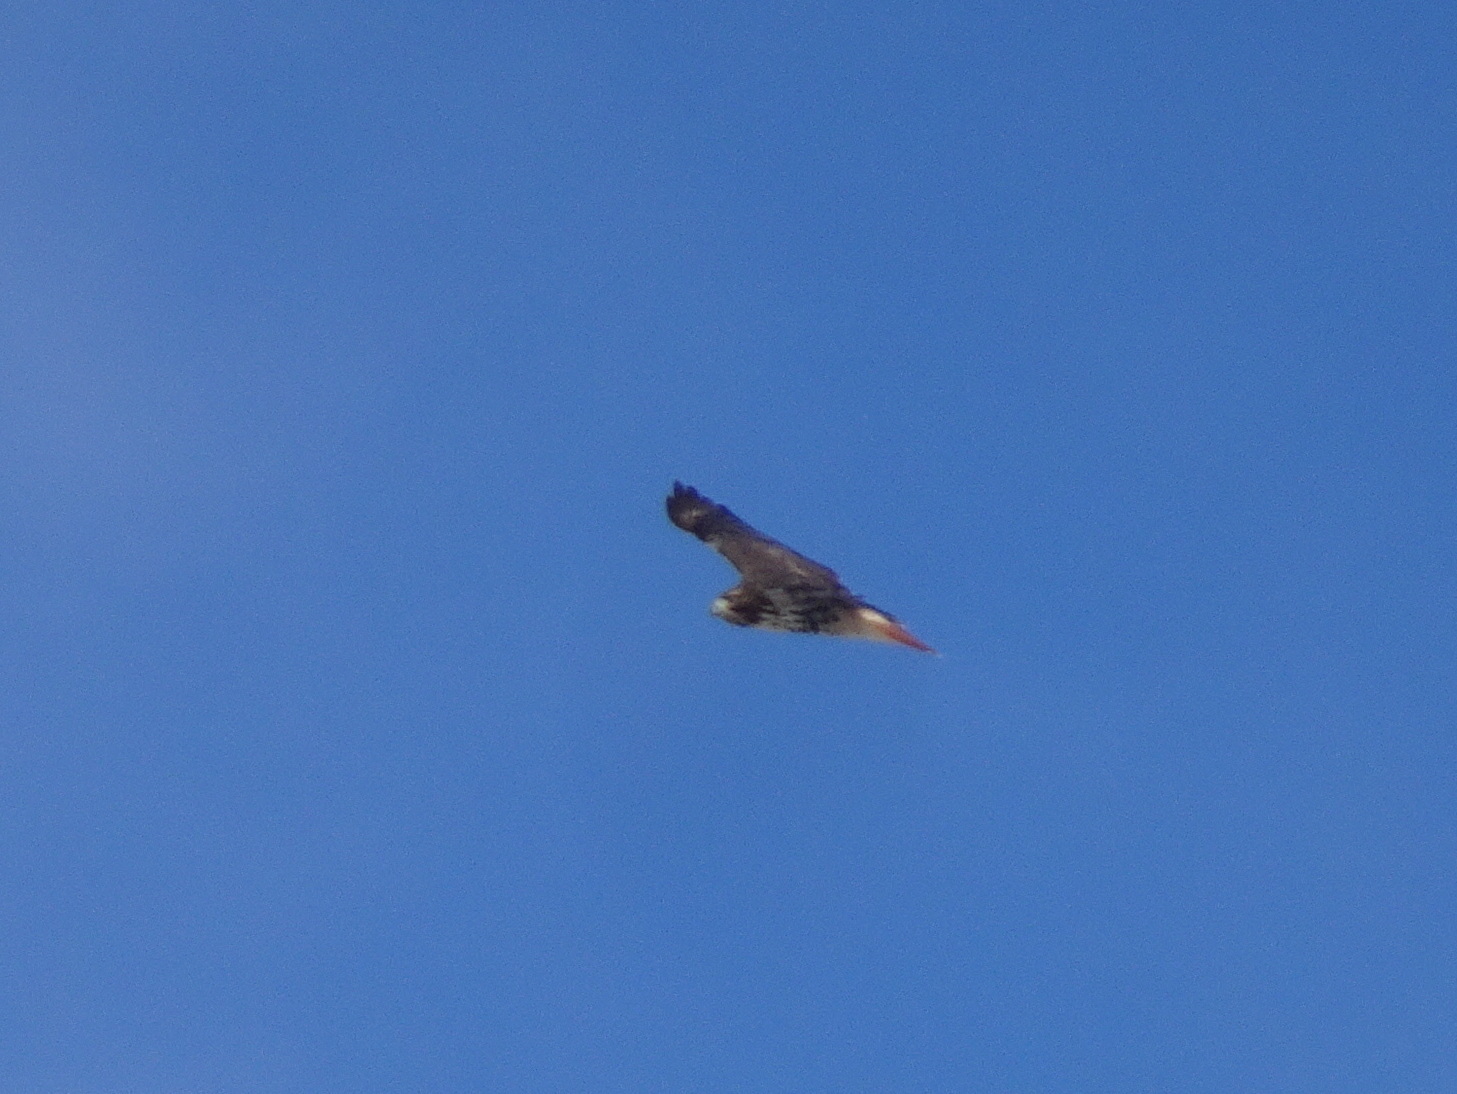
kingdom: Animalia
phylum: Chordata
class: Aves
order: Accipitriformes
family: Accipitridae
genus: Buteo
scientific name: Buteo jamaicensis
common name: Red-tailed hawk
